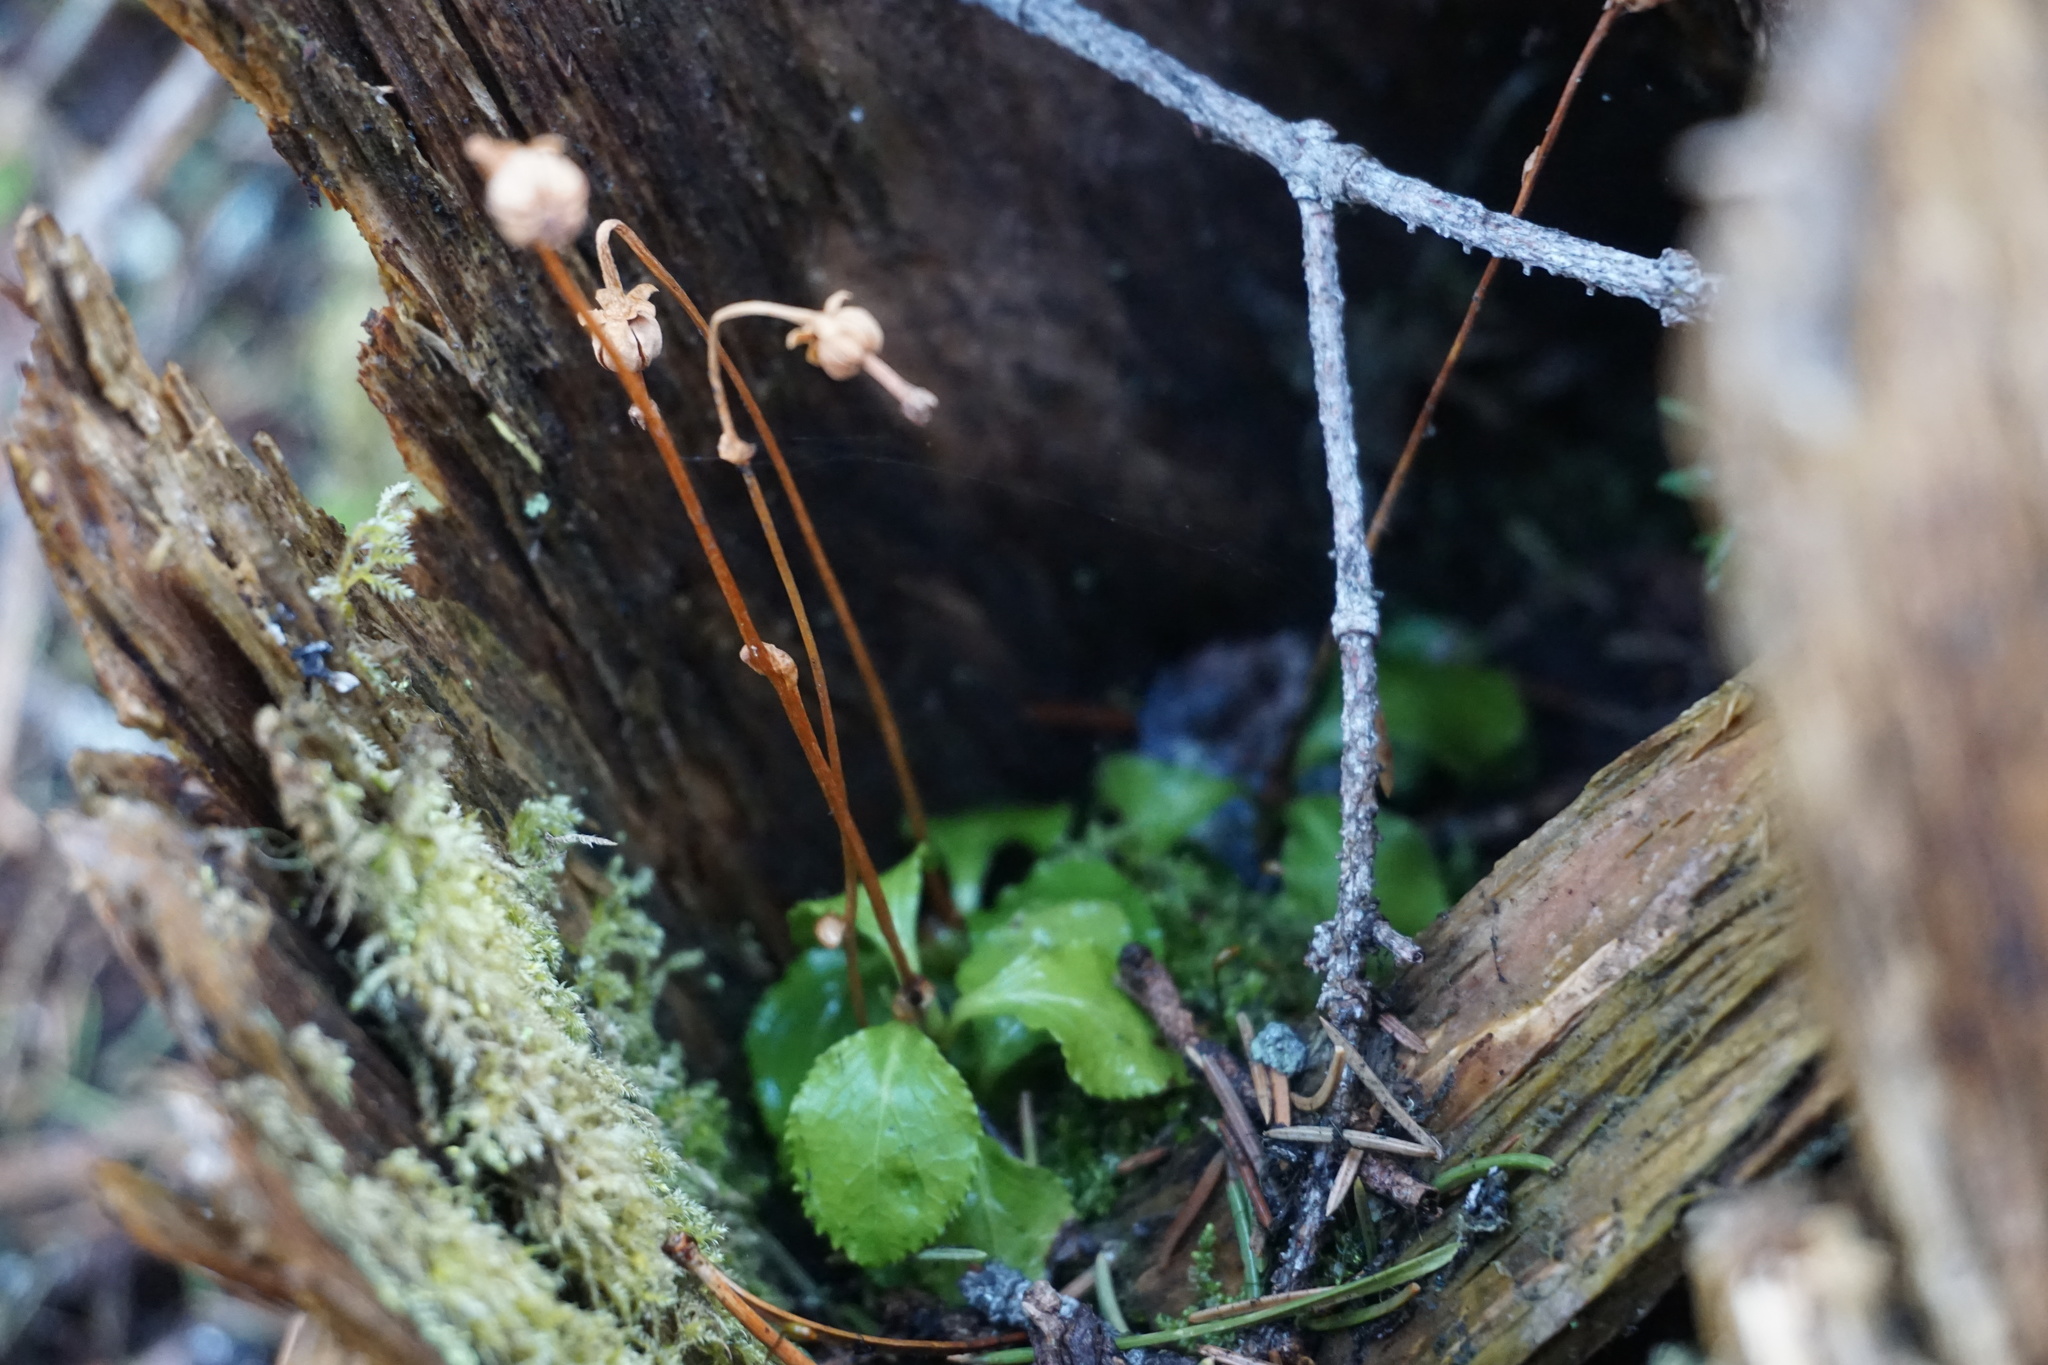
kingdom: Plantae
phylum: Tracheophyta
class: Magnoliopsida
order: Ericales
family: Ericaceae
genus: Moneses
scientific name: Moneses uniflora
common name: One-flowered wintergreen
